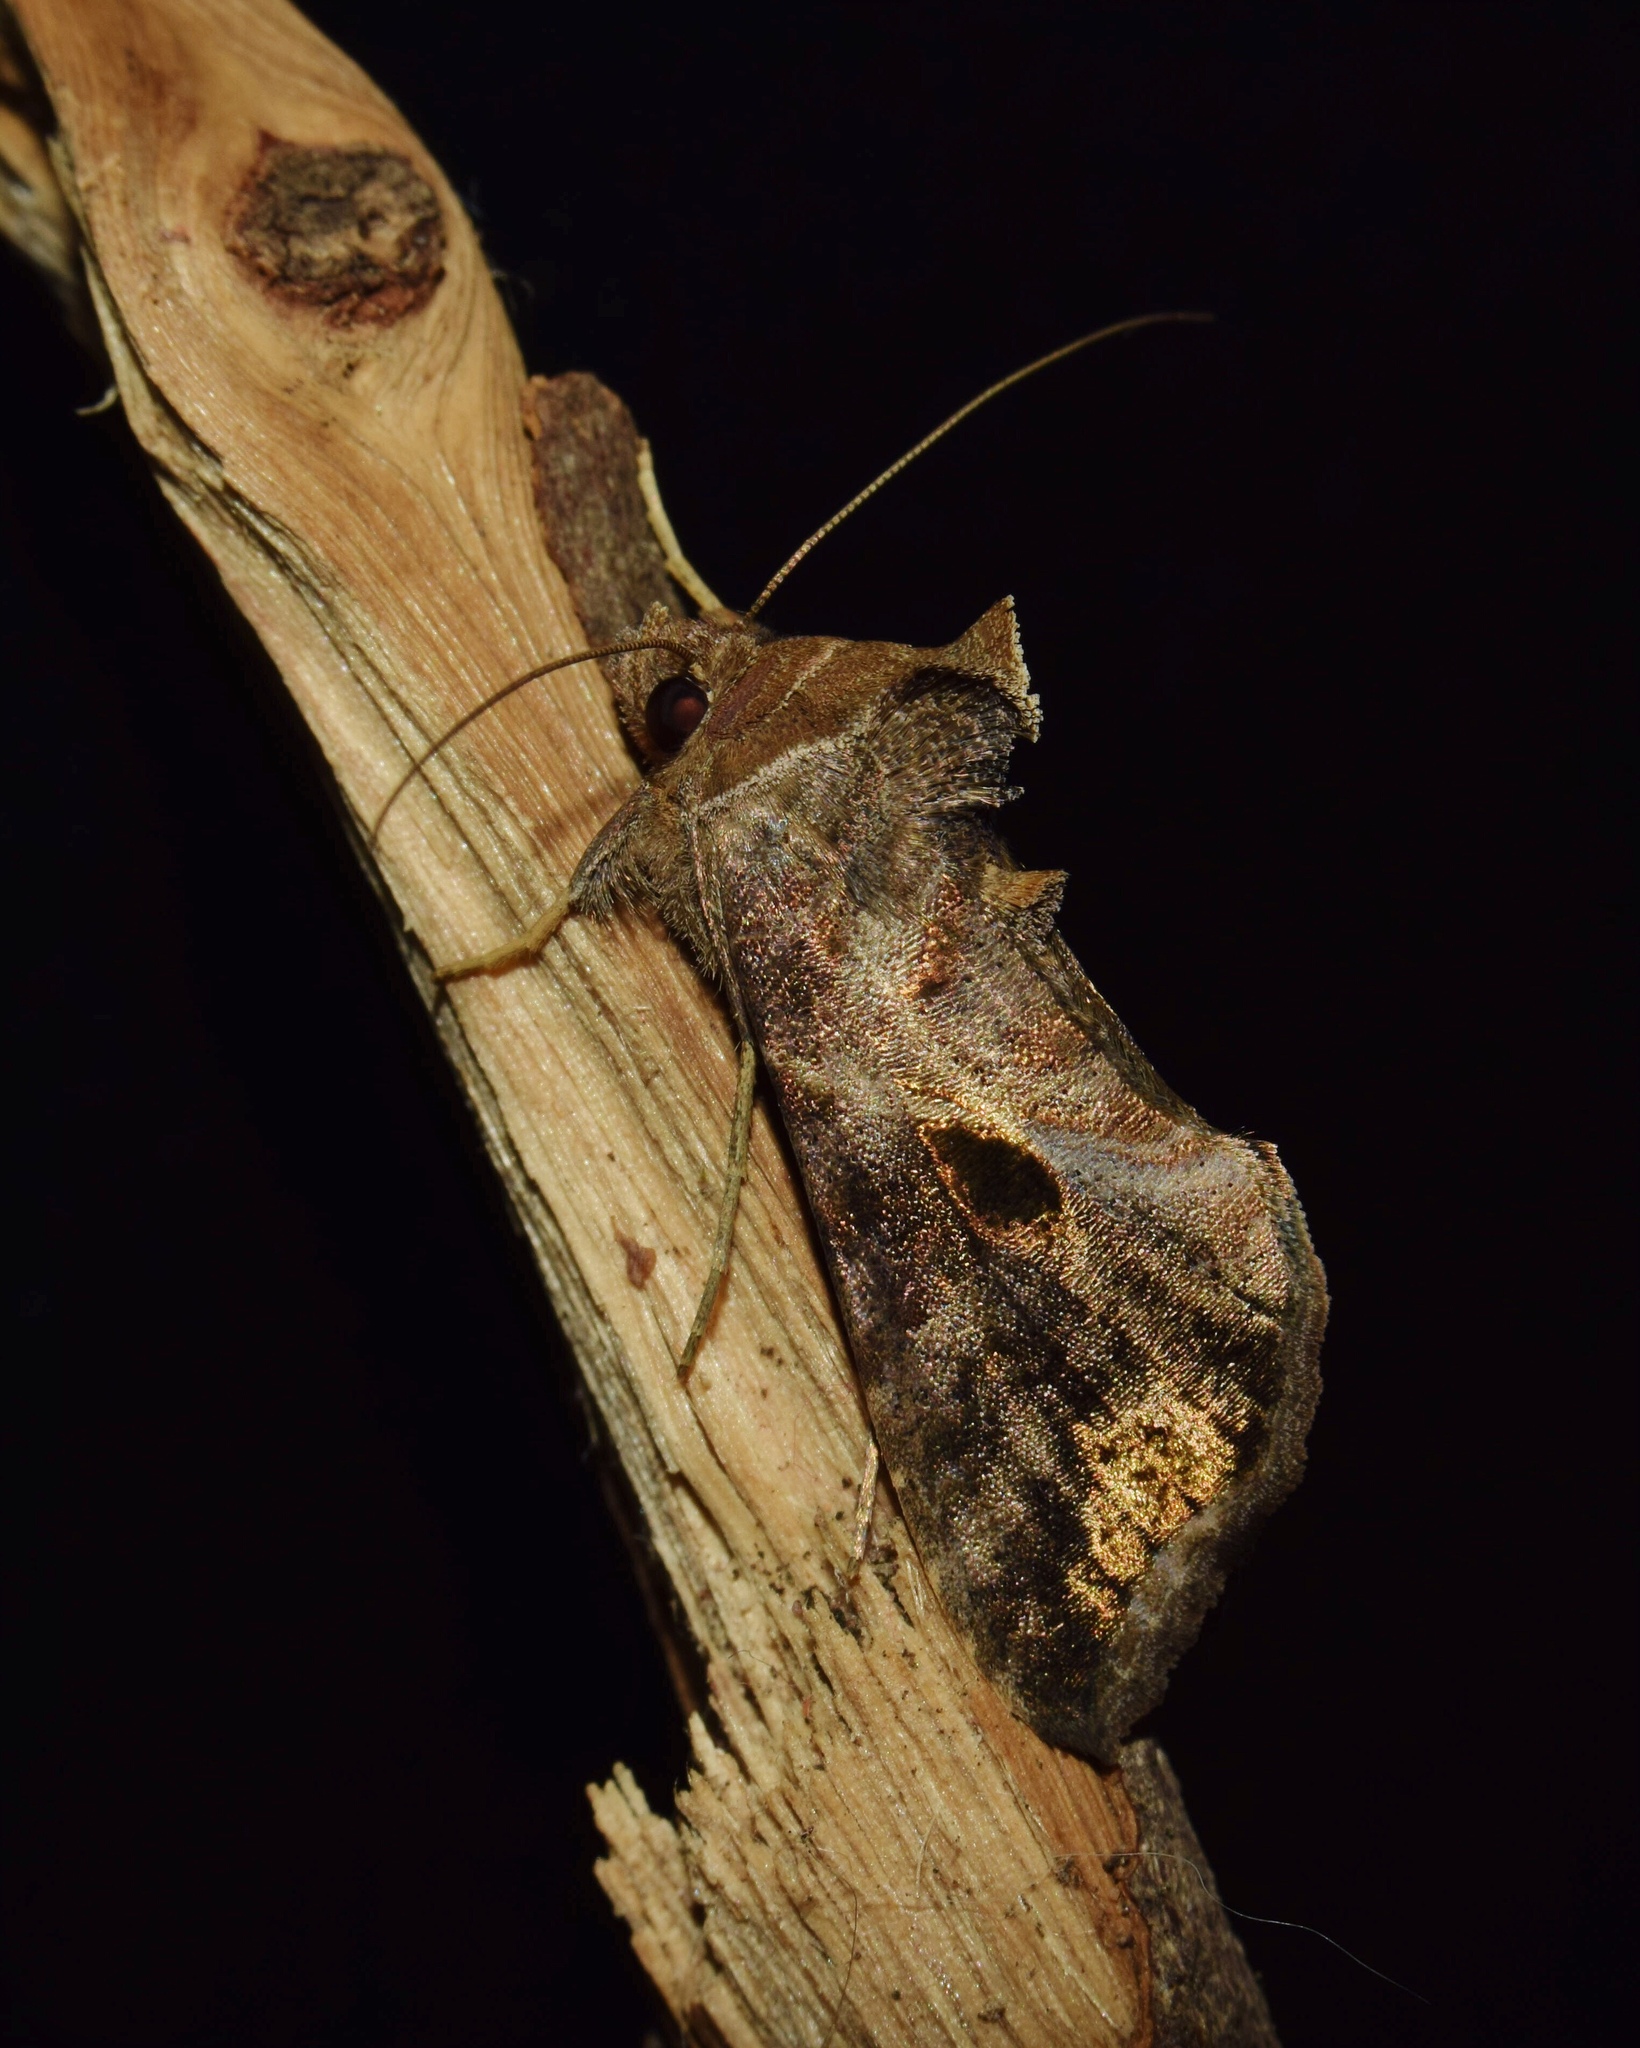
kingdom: Animalia
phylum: Arthropoda
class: Insecta
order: Lepidoptera
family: Noctuidae
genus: Ctenoplusia
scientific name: Ctenoplusia phocea
